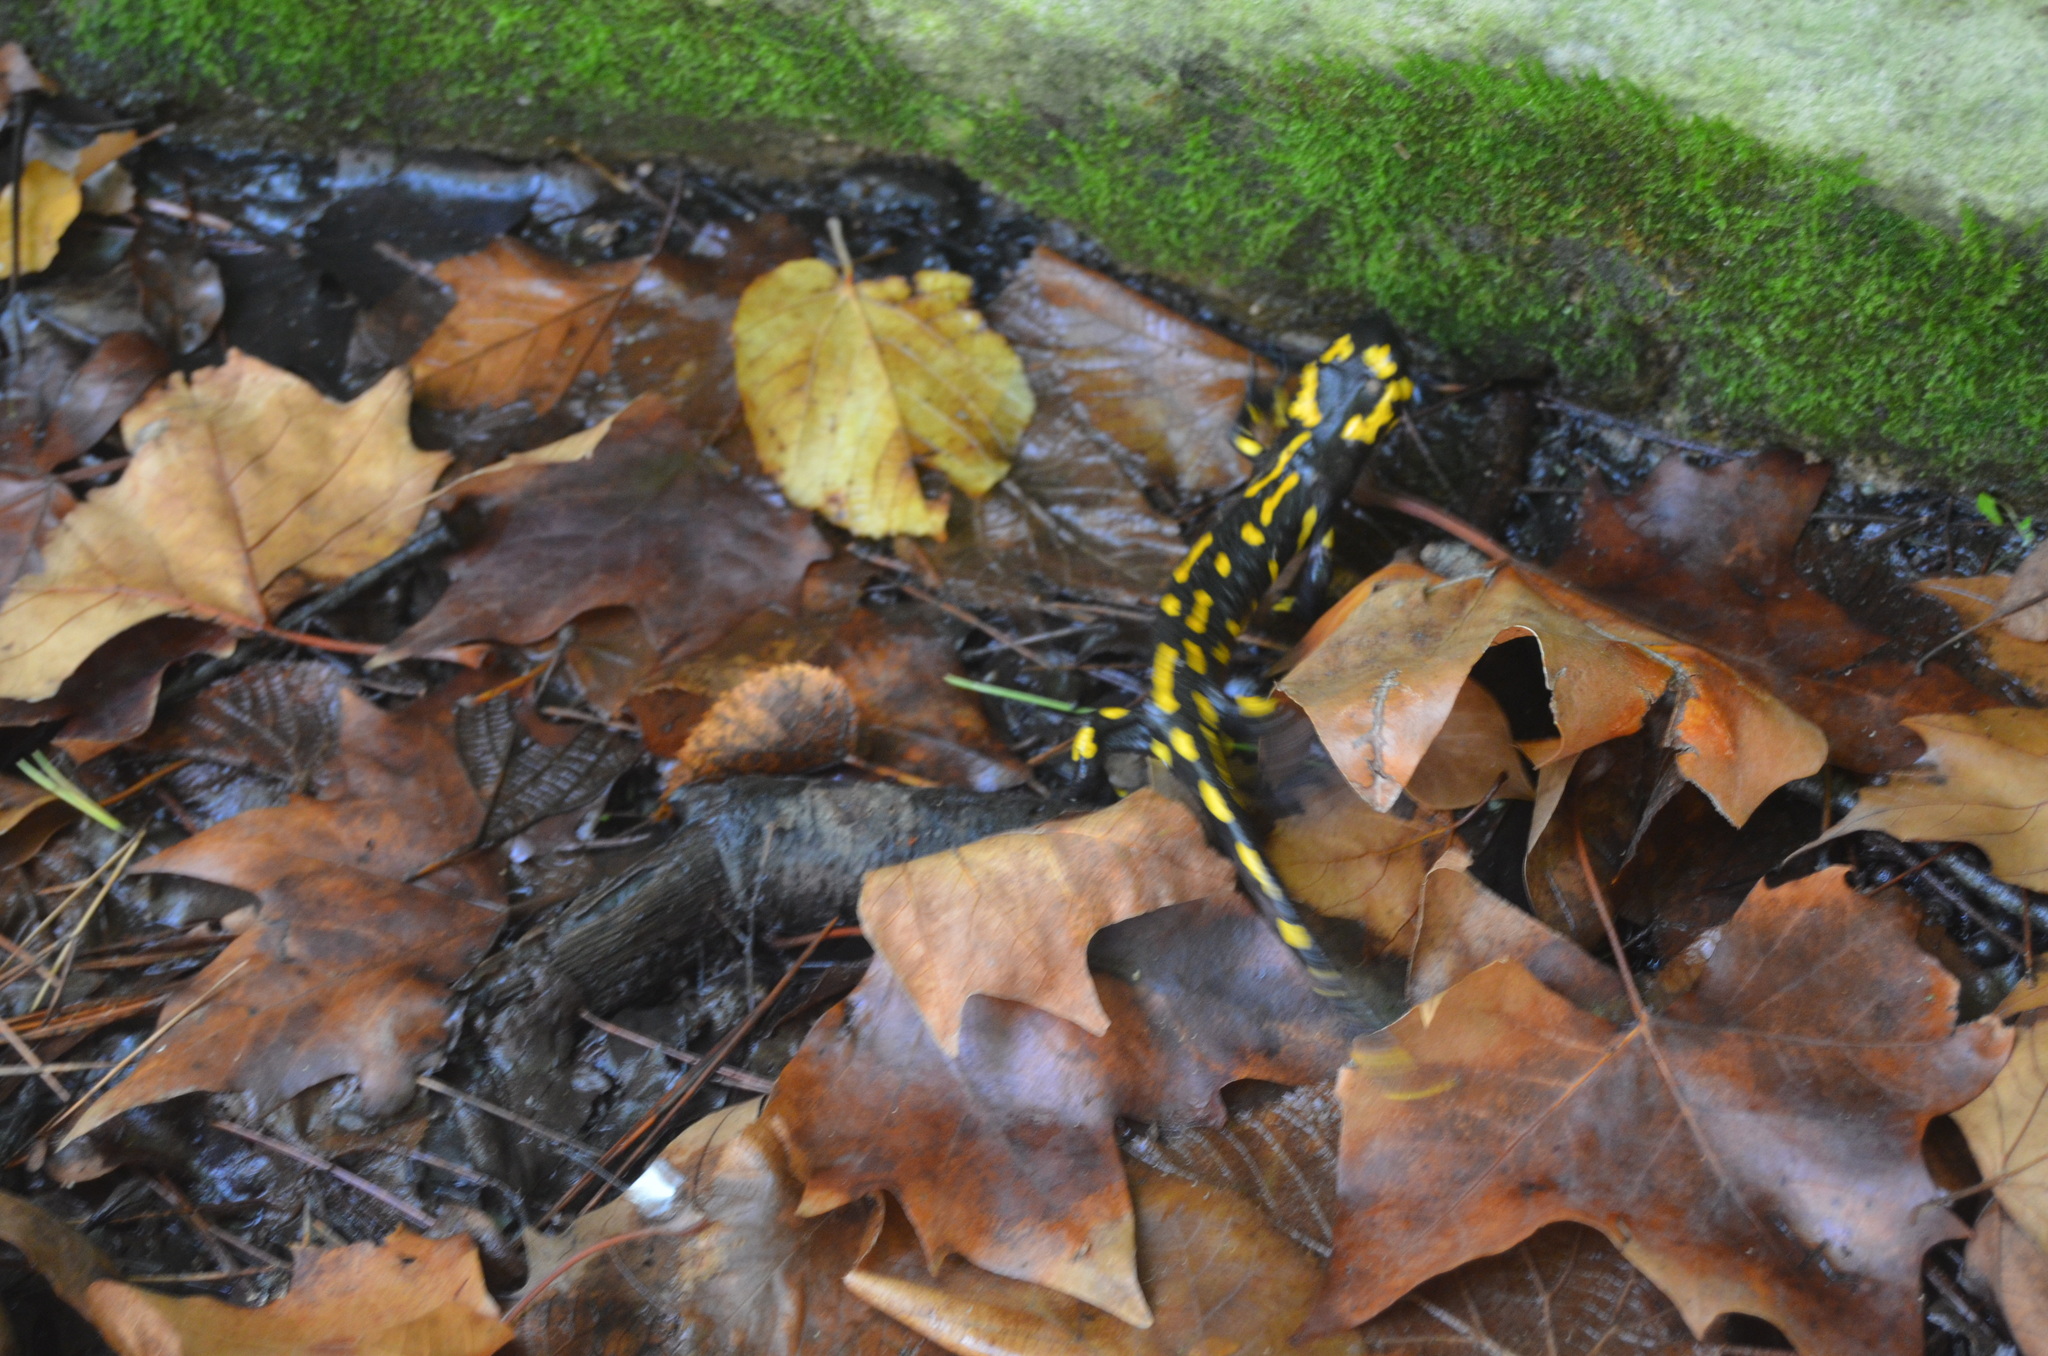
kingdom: Animalia
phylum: Chordata
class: Amphibia
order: Caudata
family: Salamandridae
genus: Salamandra
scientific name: Salamandra salamandra
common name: Fire salamander
